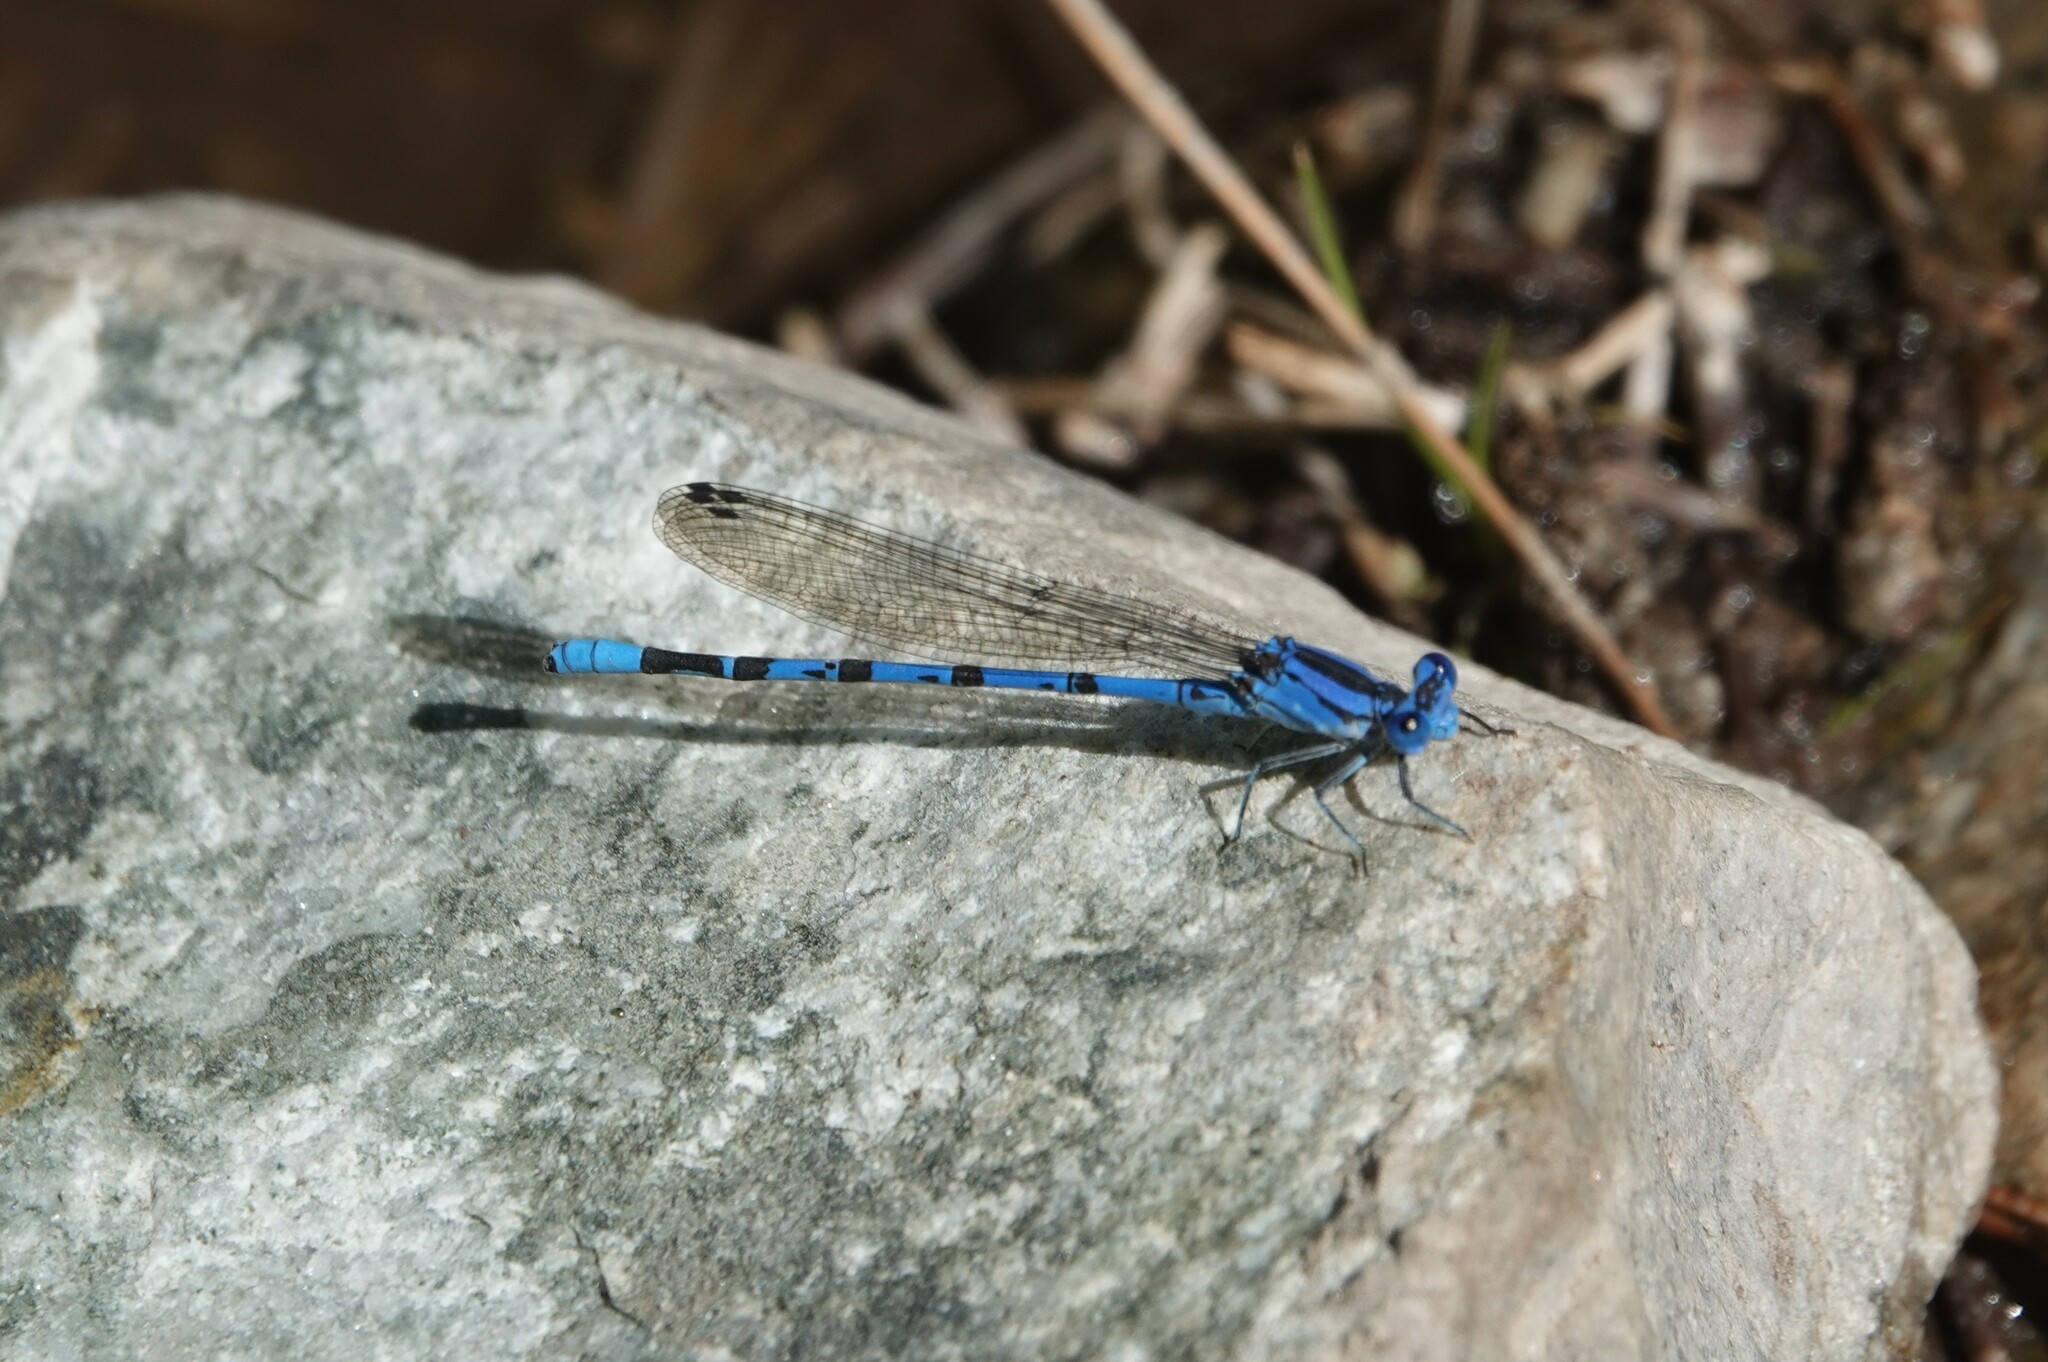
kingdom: Animalia
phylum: Arthropoda
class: Insecta
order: Odonata
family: Coenagrionidae
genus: Argia
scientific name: Argia vivida
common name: Vivid dancer
